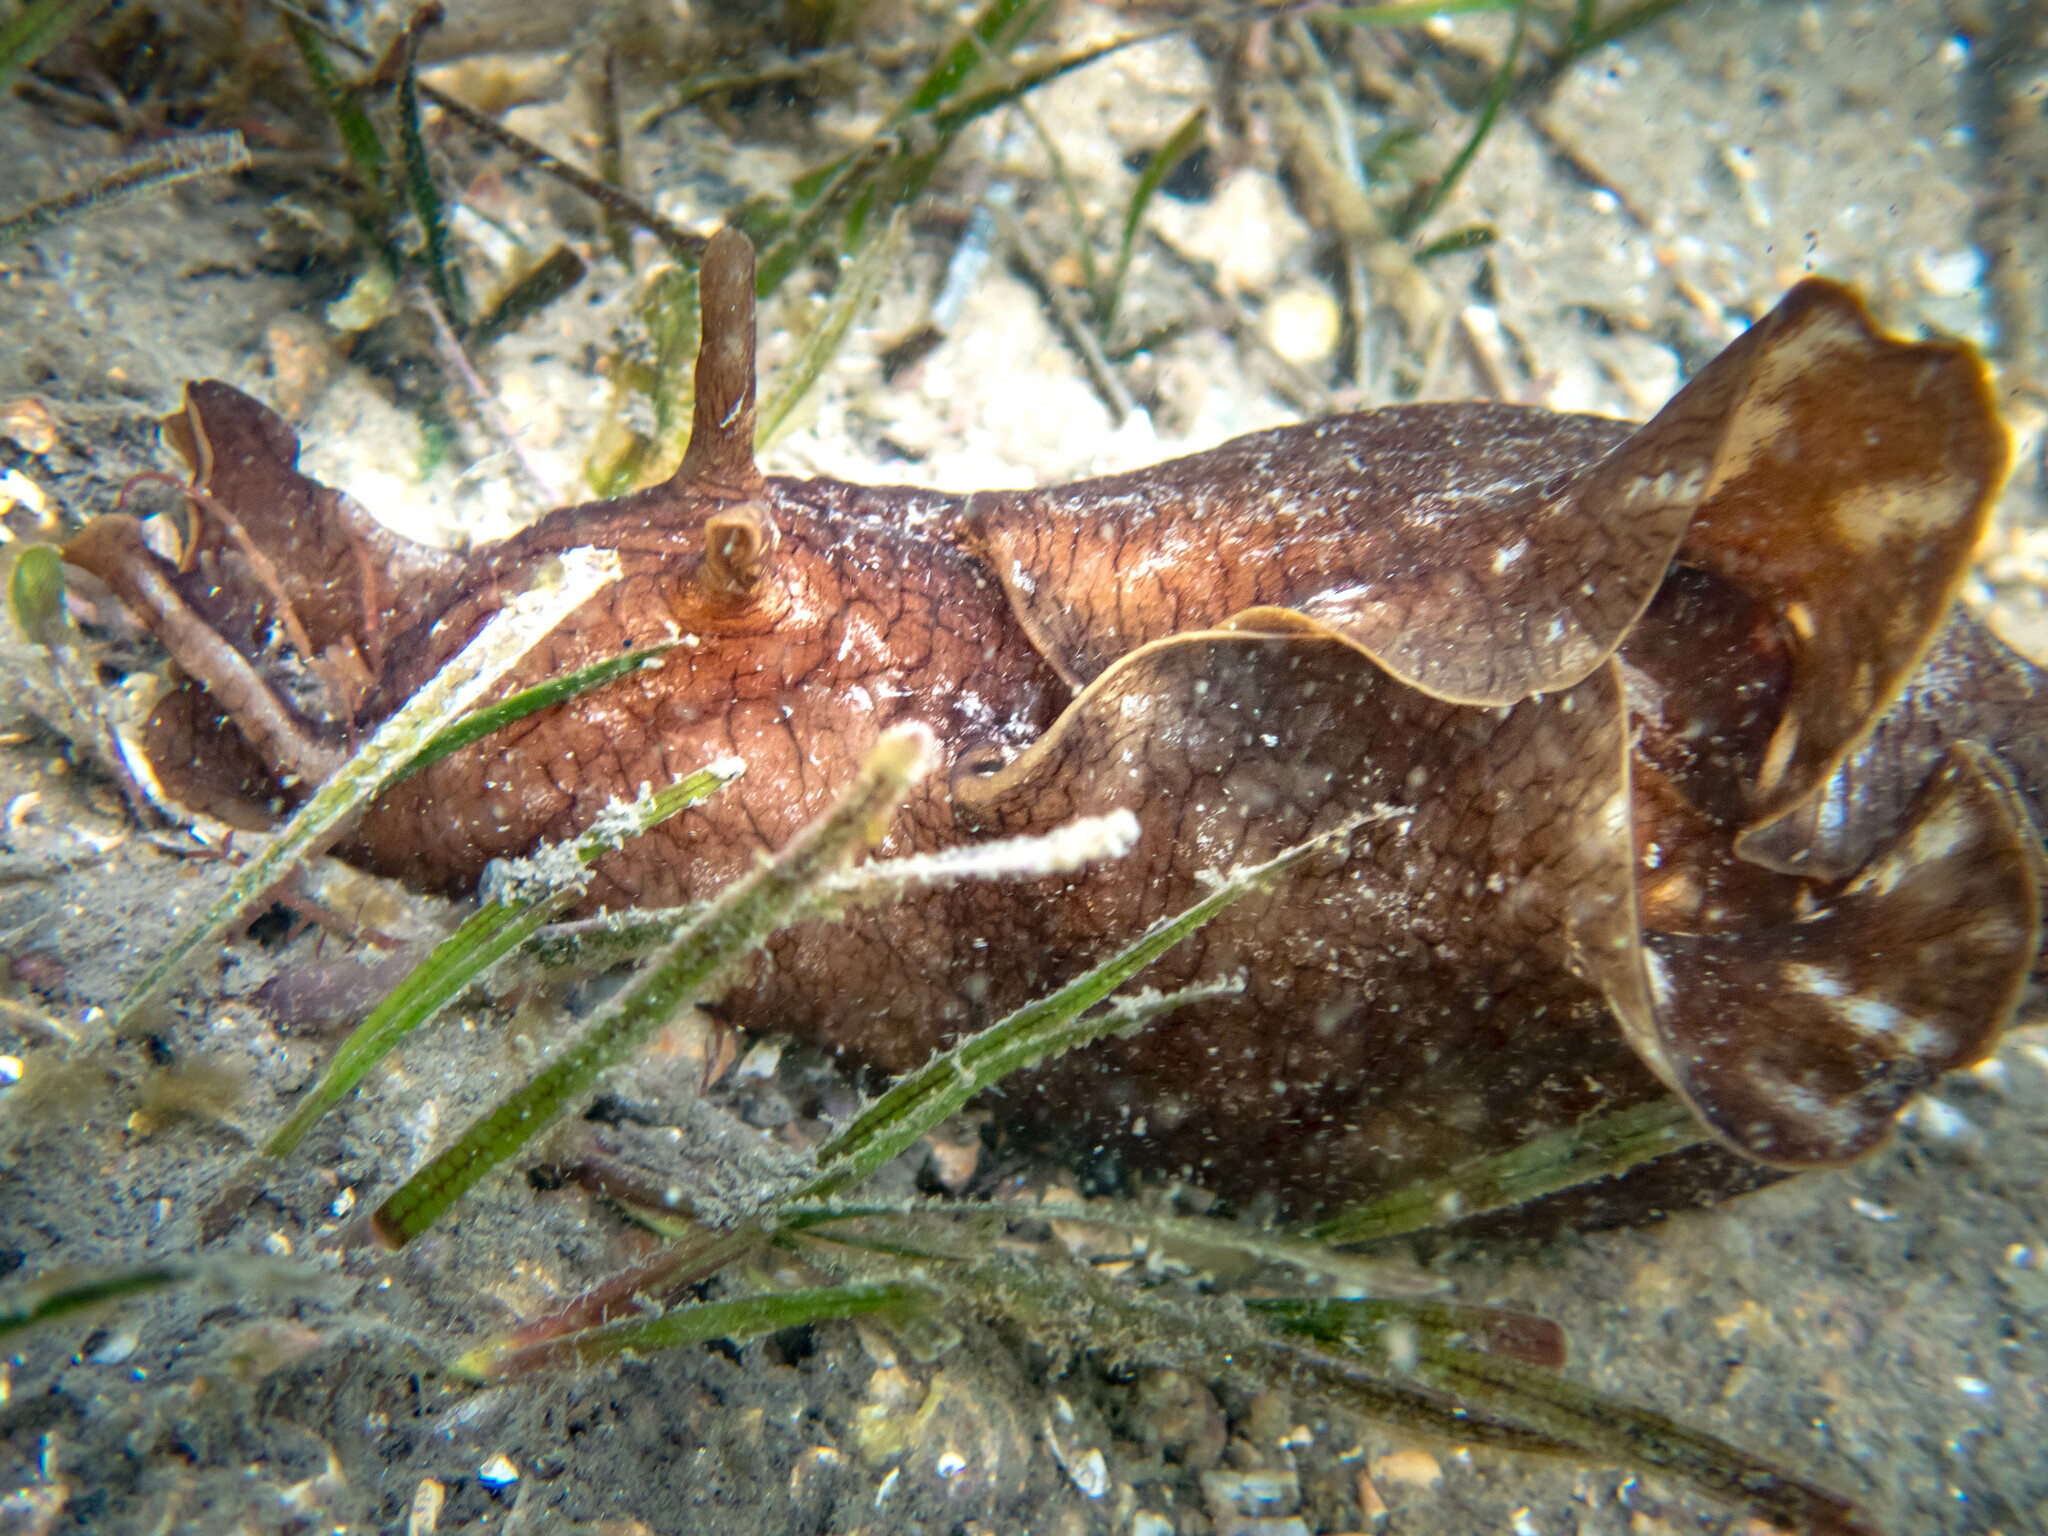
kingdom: Animalia
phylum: Mollusca
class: Gastropoda
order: Aplysiida
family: Aplysiidae
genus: Aplysia
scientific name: Aplysia sydneyensis
